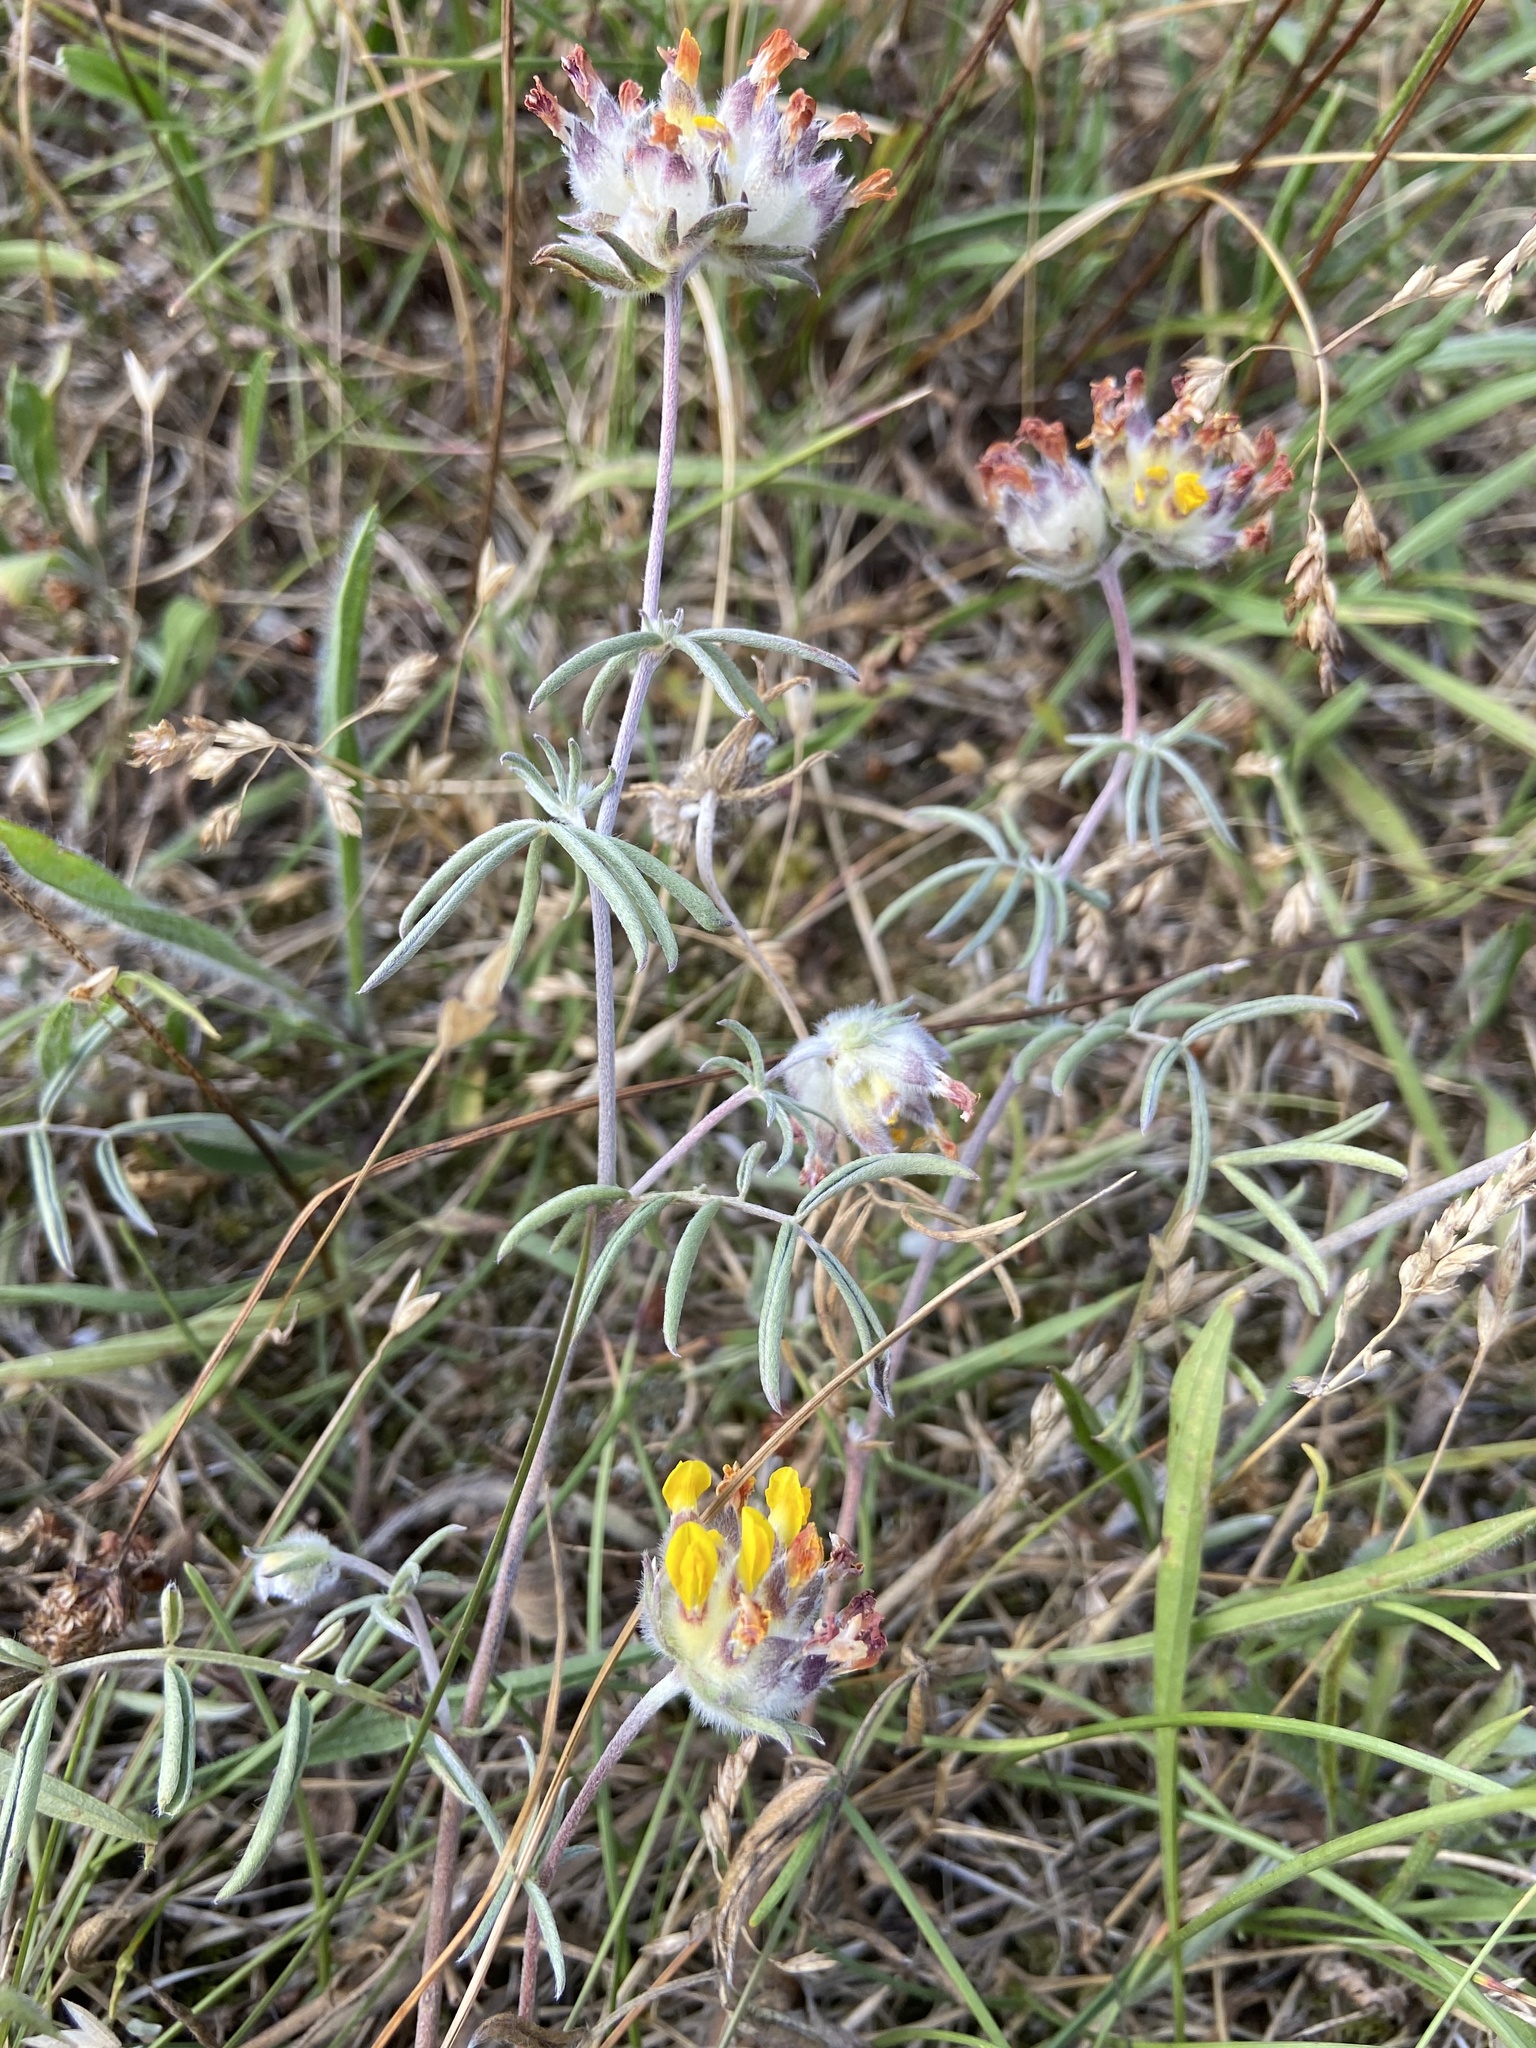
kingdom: Plantae
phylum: Tracheophyta
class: Magnoliopsida
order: Fabales
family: Fabaceae
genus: Anthyllis
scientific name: Anthyllis vulneraria
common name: Kidney vetch
